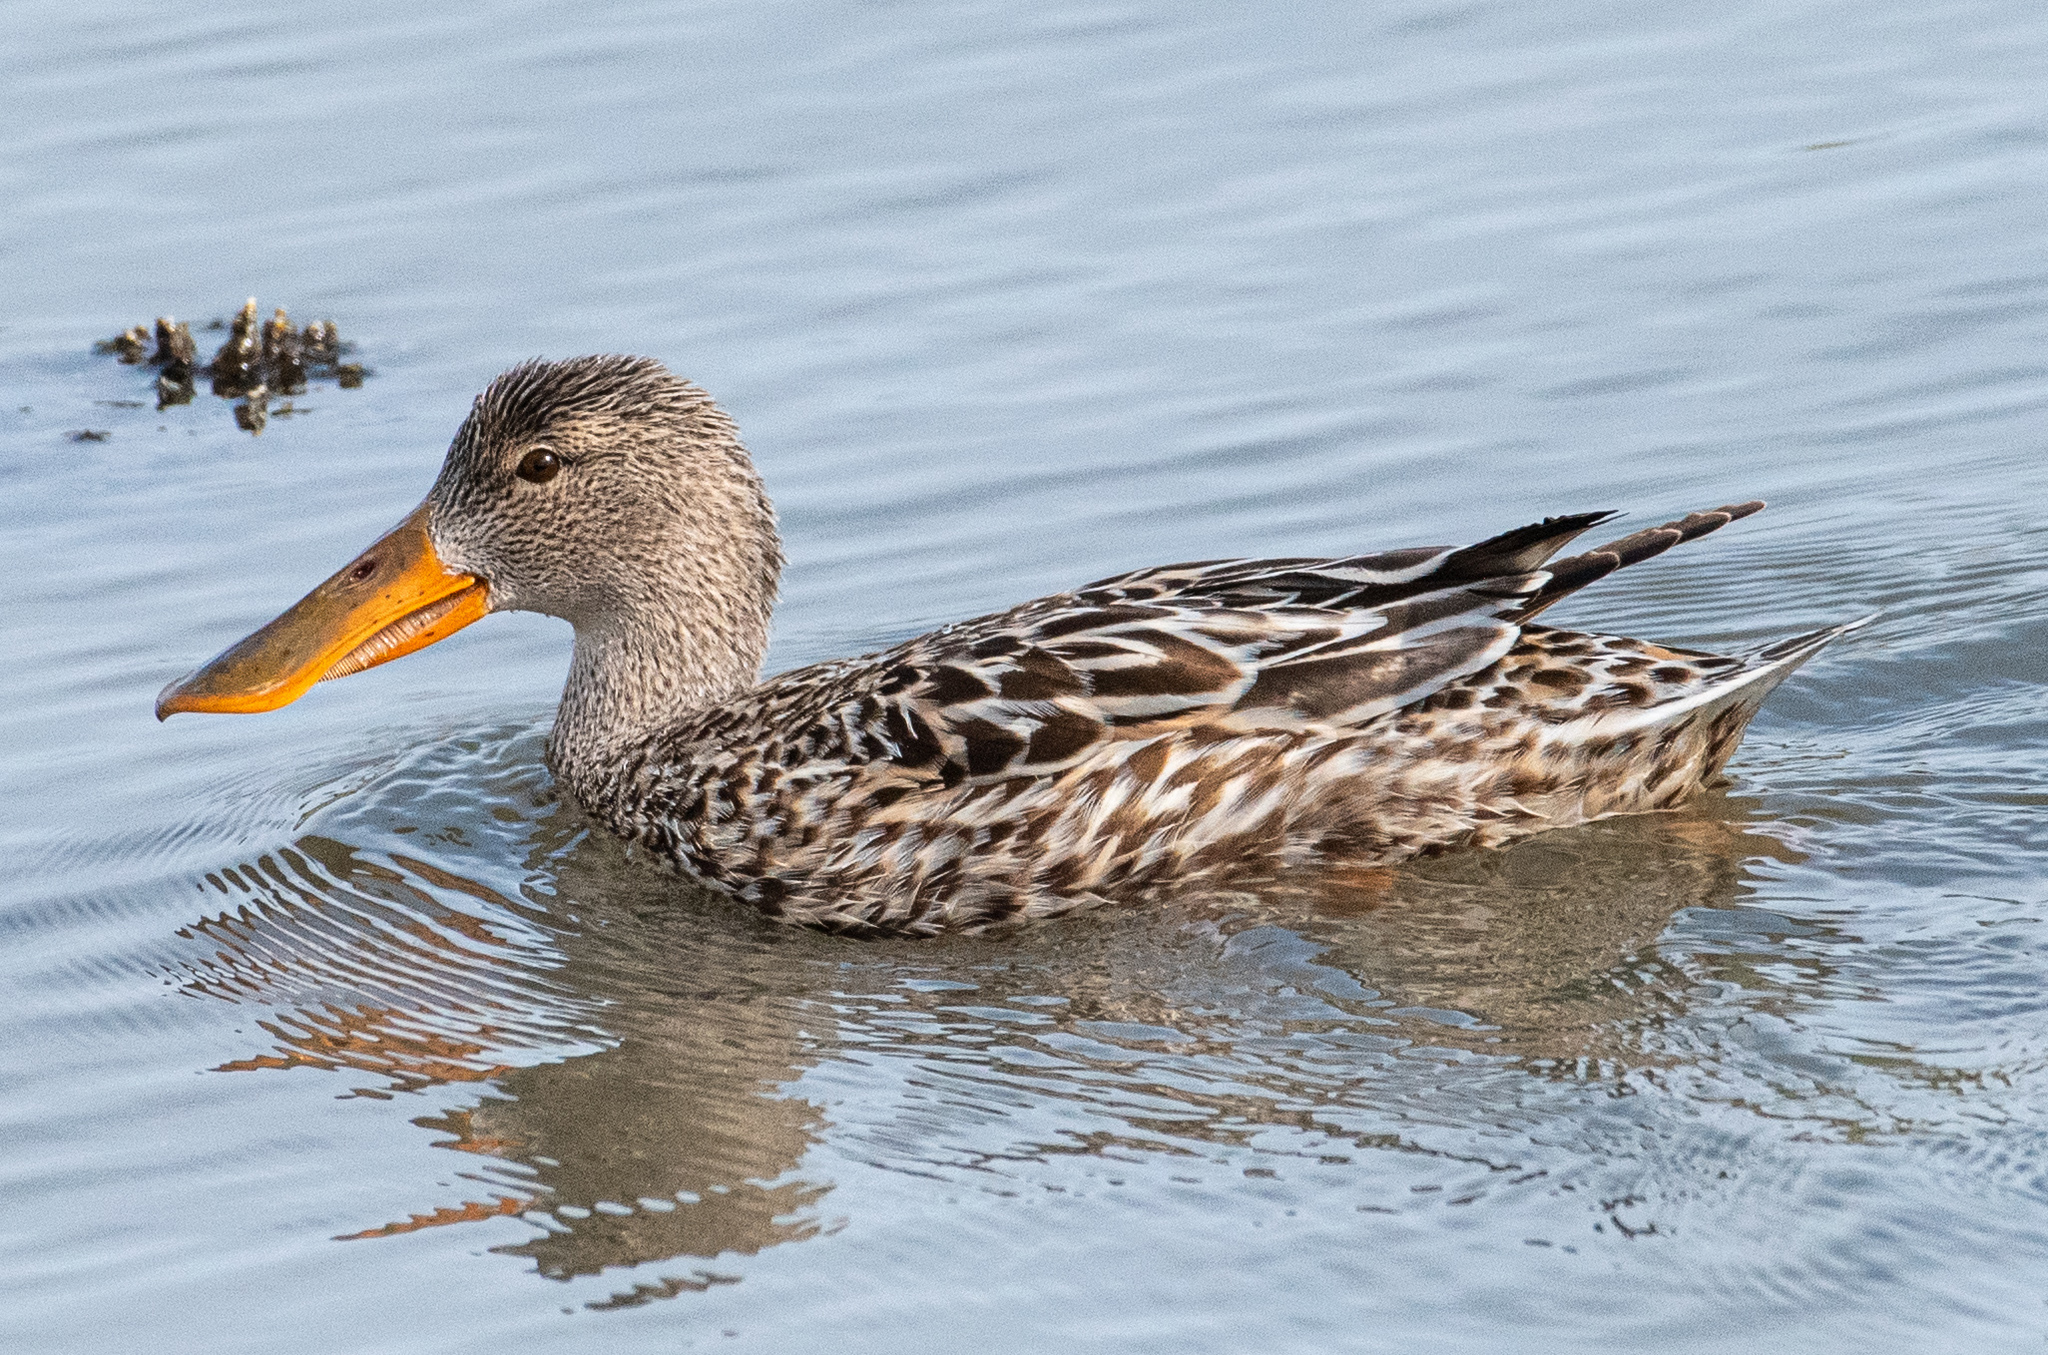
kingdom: Animalia
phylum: Chordata
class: Aves
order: Anseriformes
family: Anatidae
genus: Spatula
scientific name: Spatula clypeata
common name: Northern shoveler
